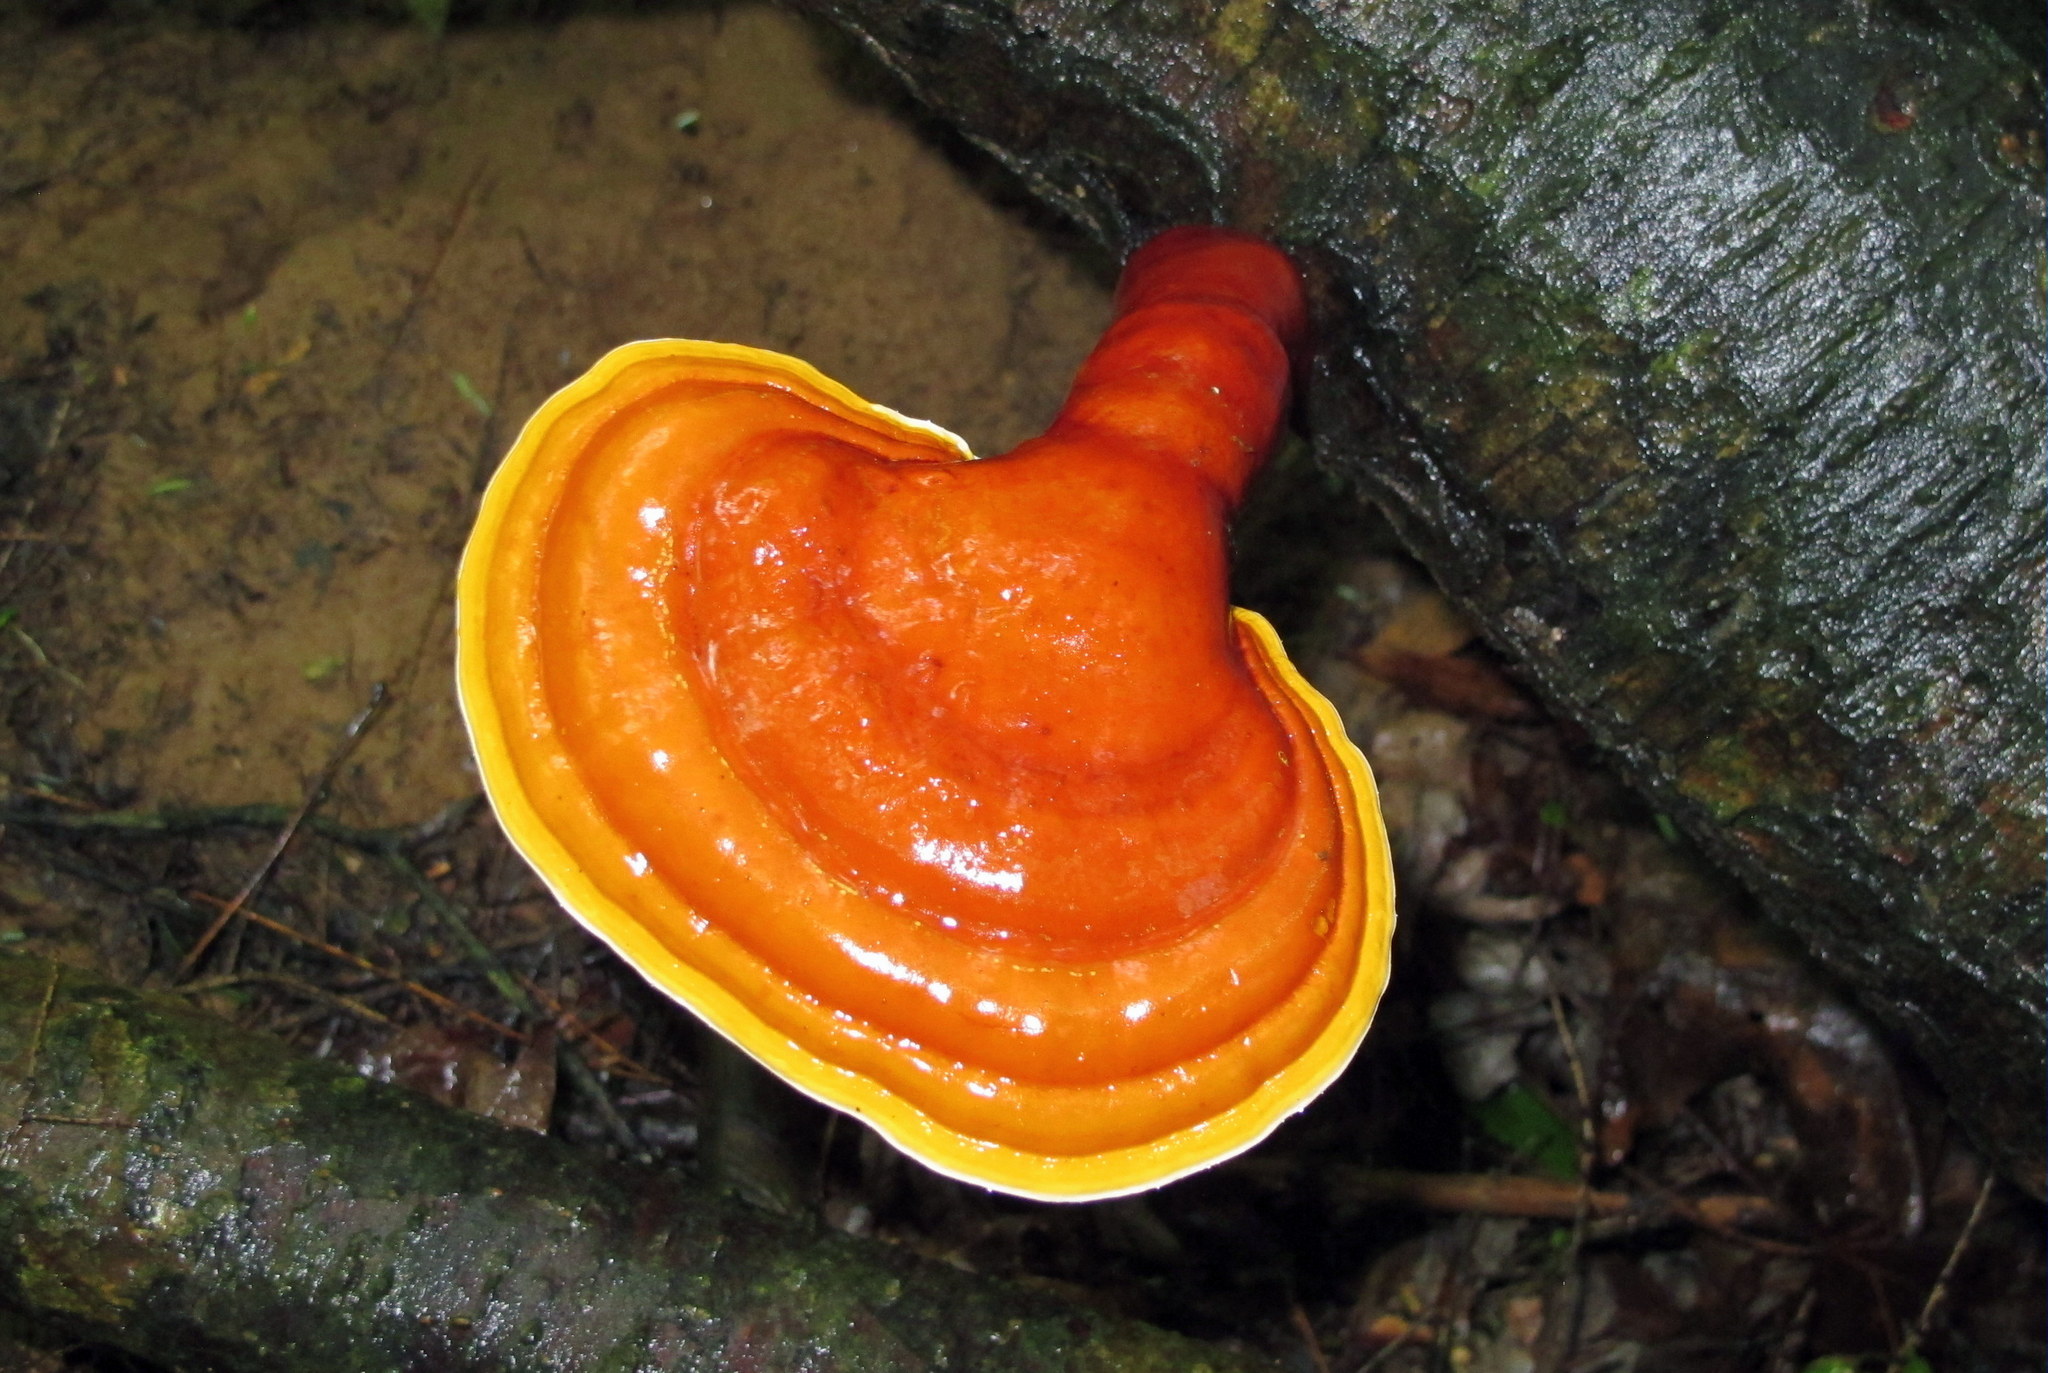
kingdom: Fungi
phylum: Basidiomycota
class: Agaricomycetes
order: Polyporales
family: Polyporaceae
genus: Ganoderma
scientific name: Ganoderma tsugae
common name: Hemlock varnish shelf
